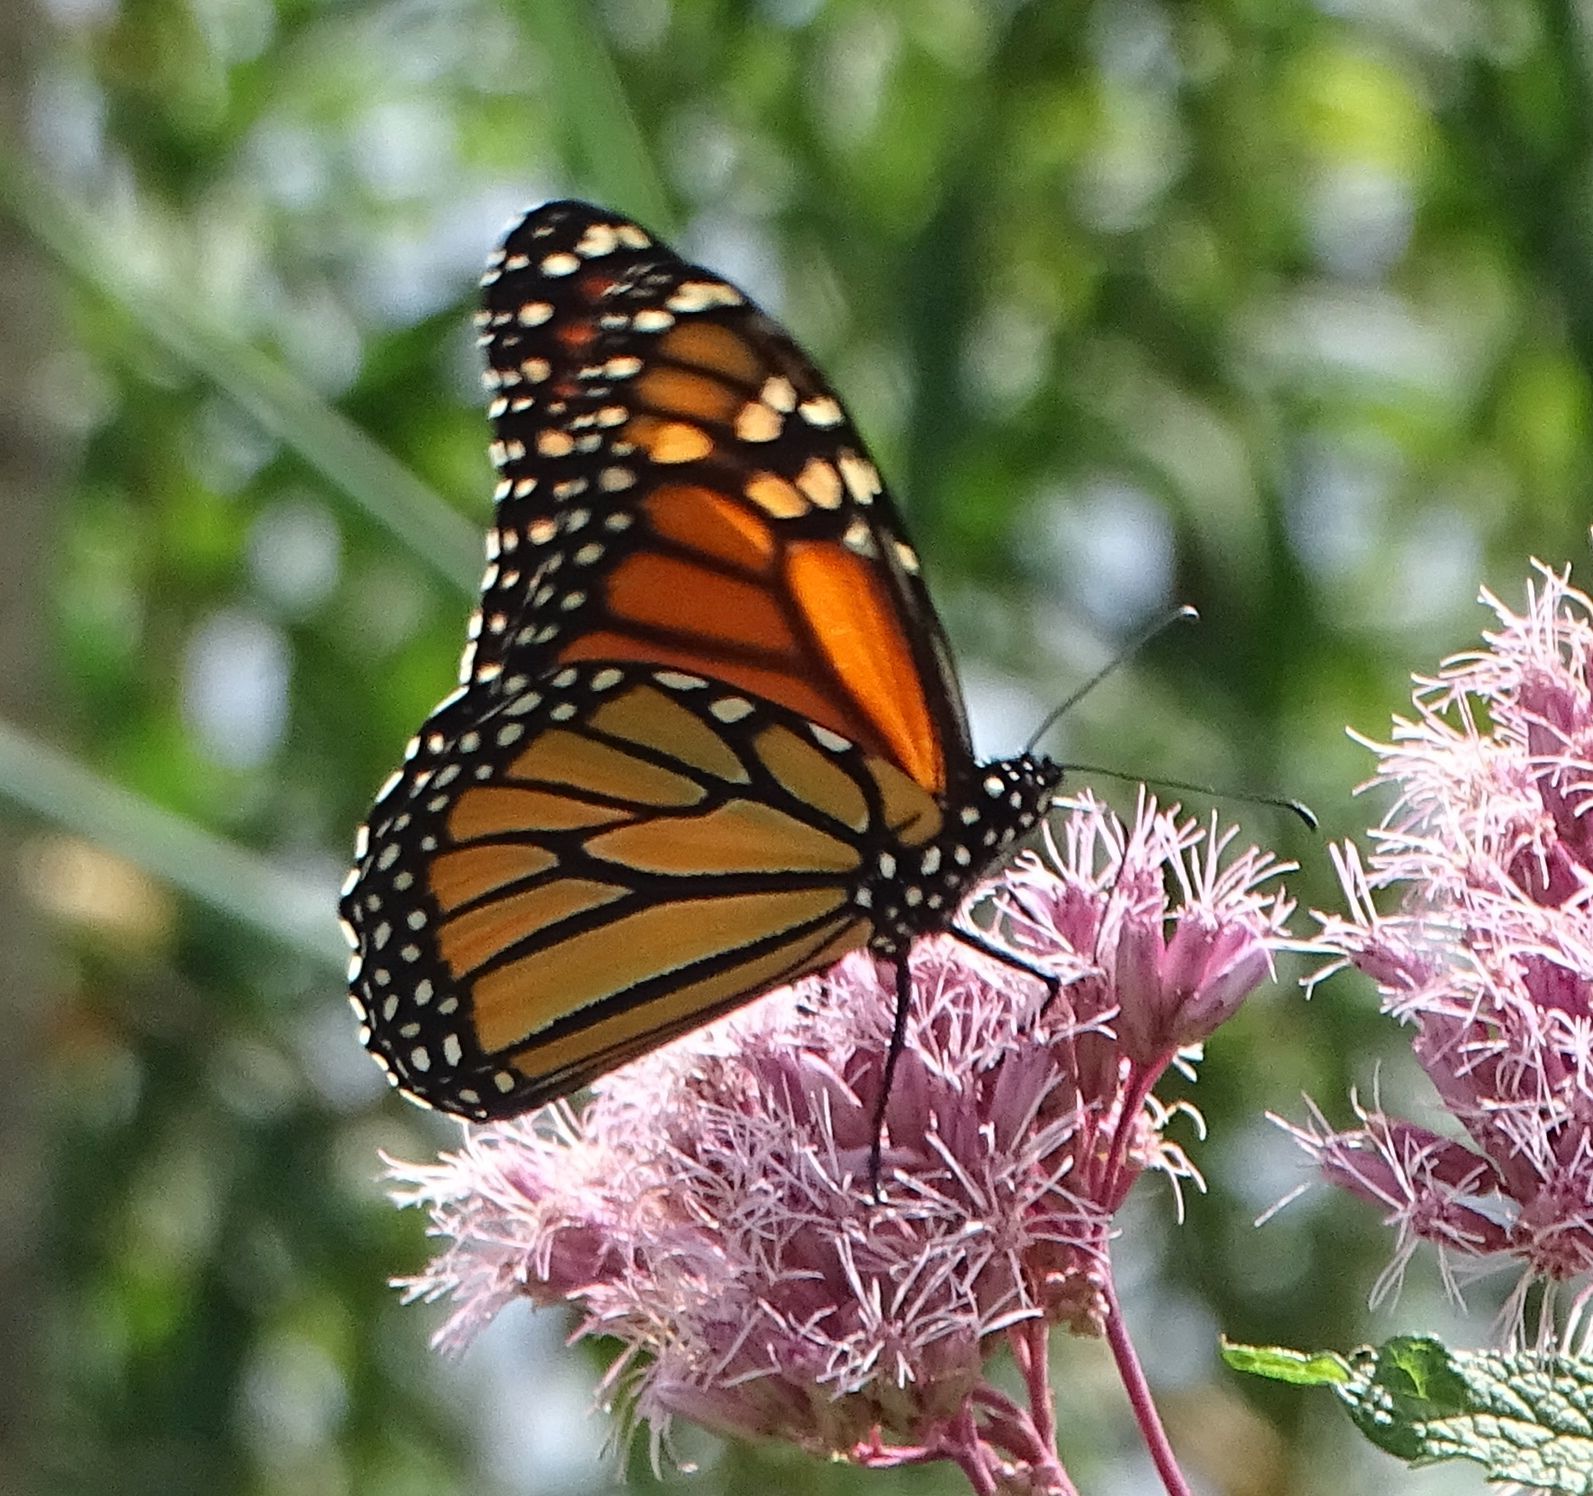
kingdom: Animalia
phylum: Arthropoda
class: Insecta
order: Lepidoptera
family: Nymphalidae
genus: Danaus
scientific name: Danaus plexippus
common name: Monarch
